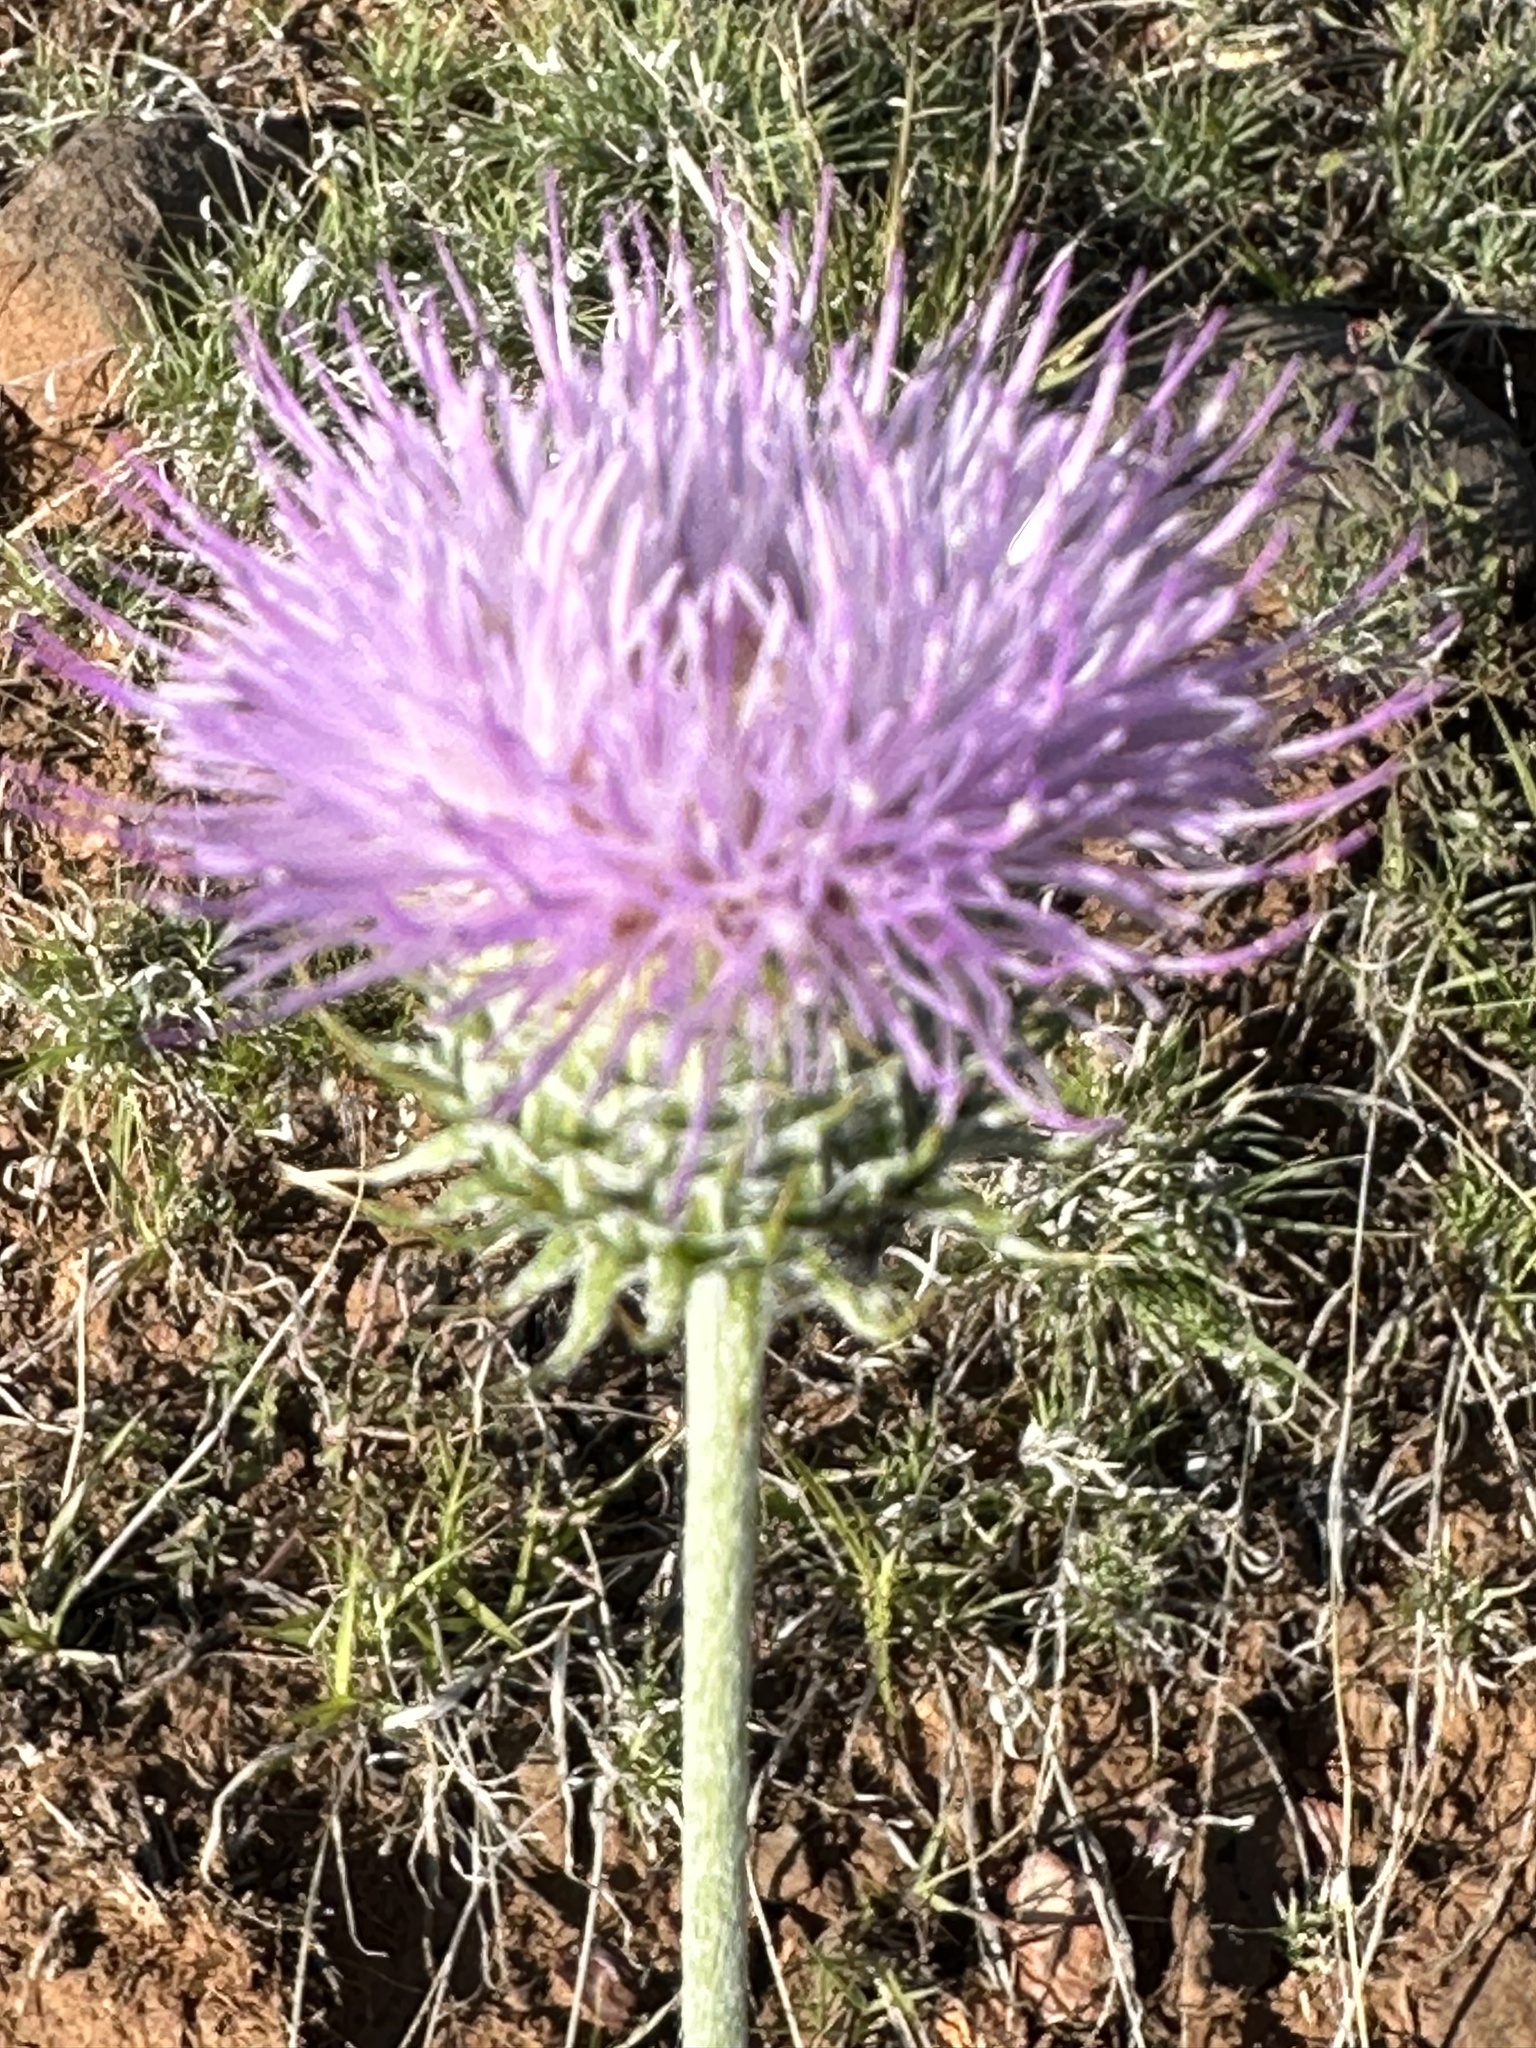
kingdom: Plantae
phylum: Tracheophyta
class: Magnoliopsida
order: Asterales
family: Asteraceae
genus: Cirsium
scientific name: Cirsium neomexicanum
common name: New mexico thistle
